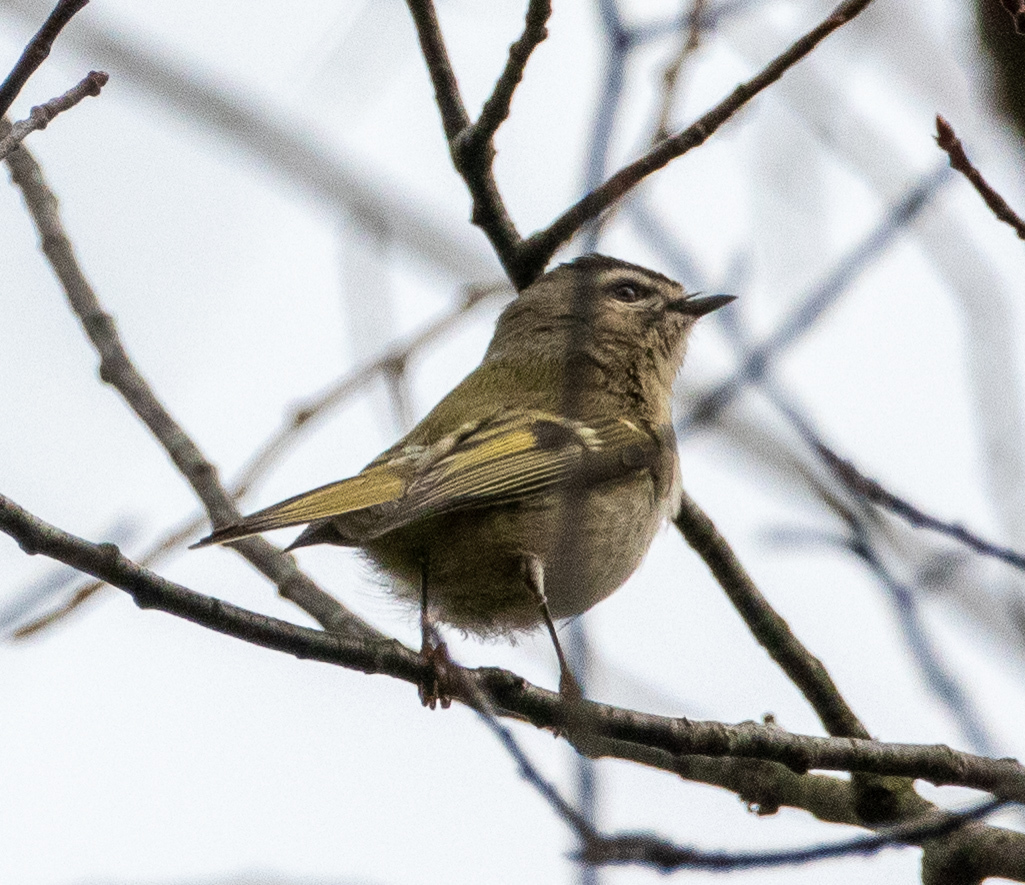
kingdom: Animalia
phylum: Chordata
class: Aves
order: Passeriformes
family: Regulidae
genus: Regulus
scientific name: Regulus satrapa
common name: Golden-crowned kinglet
